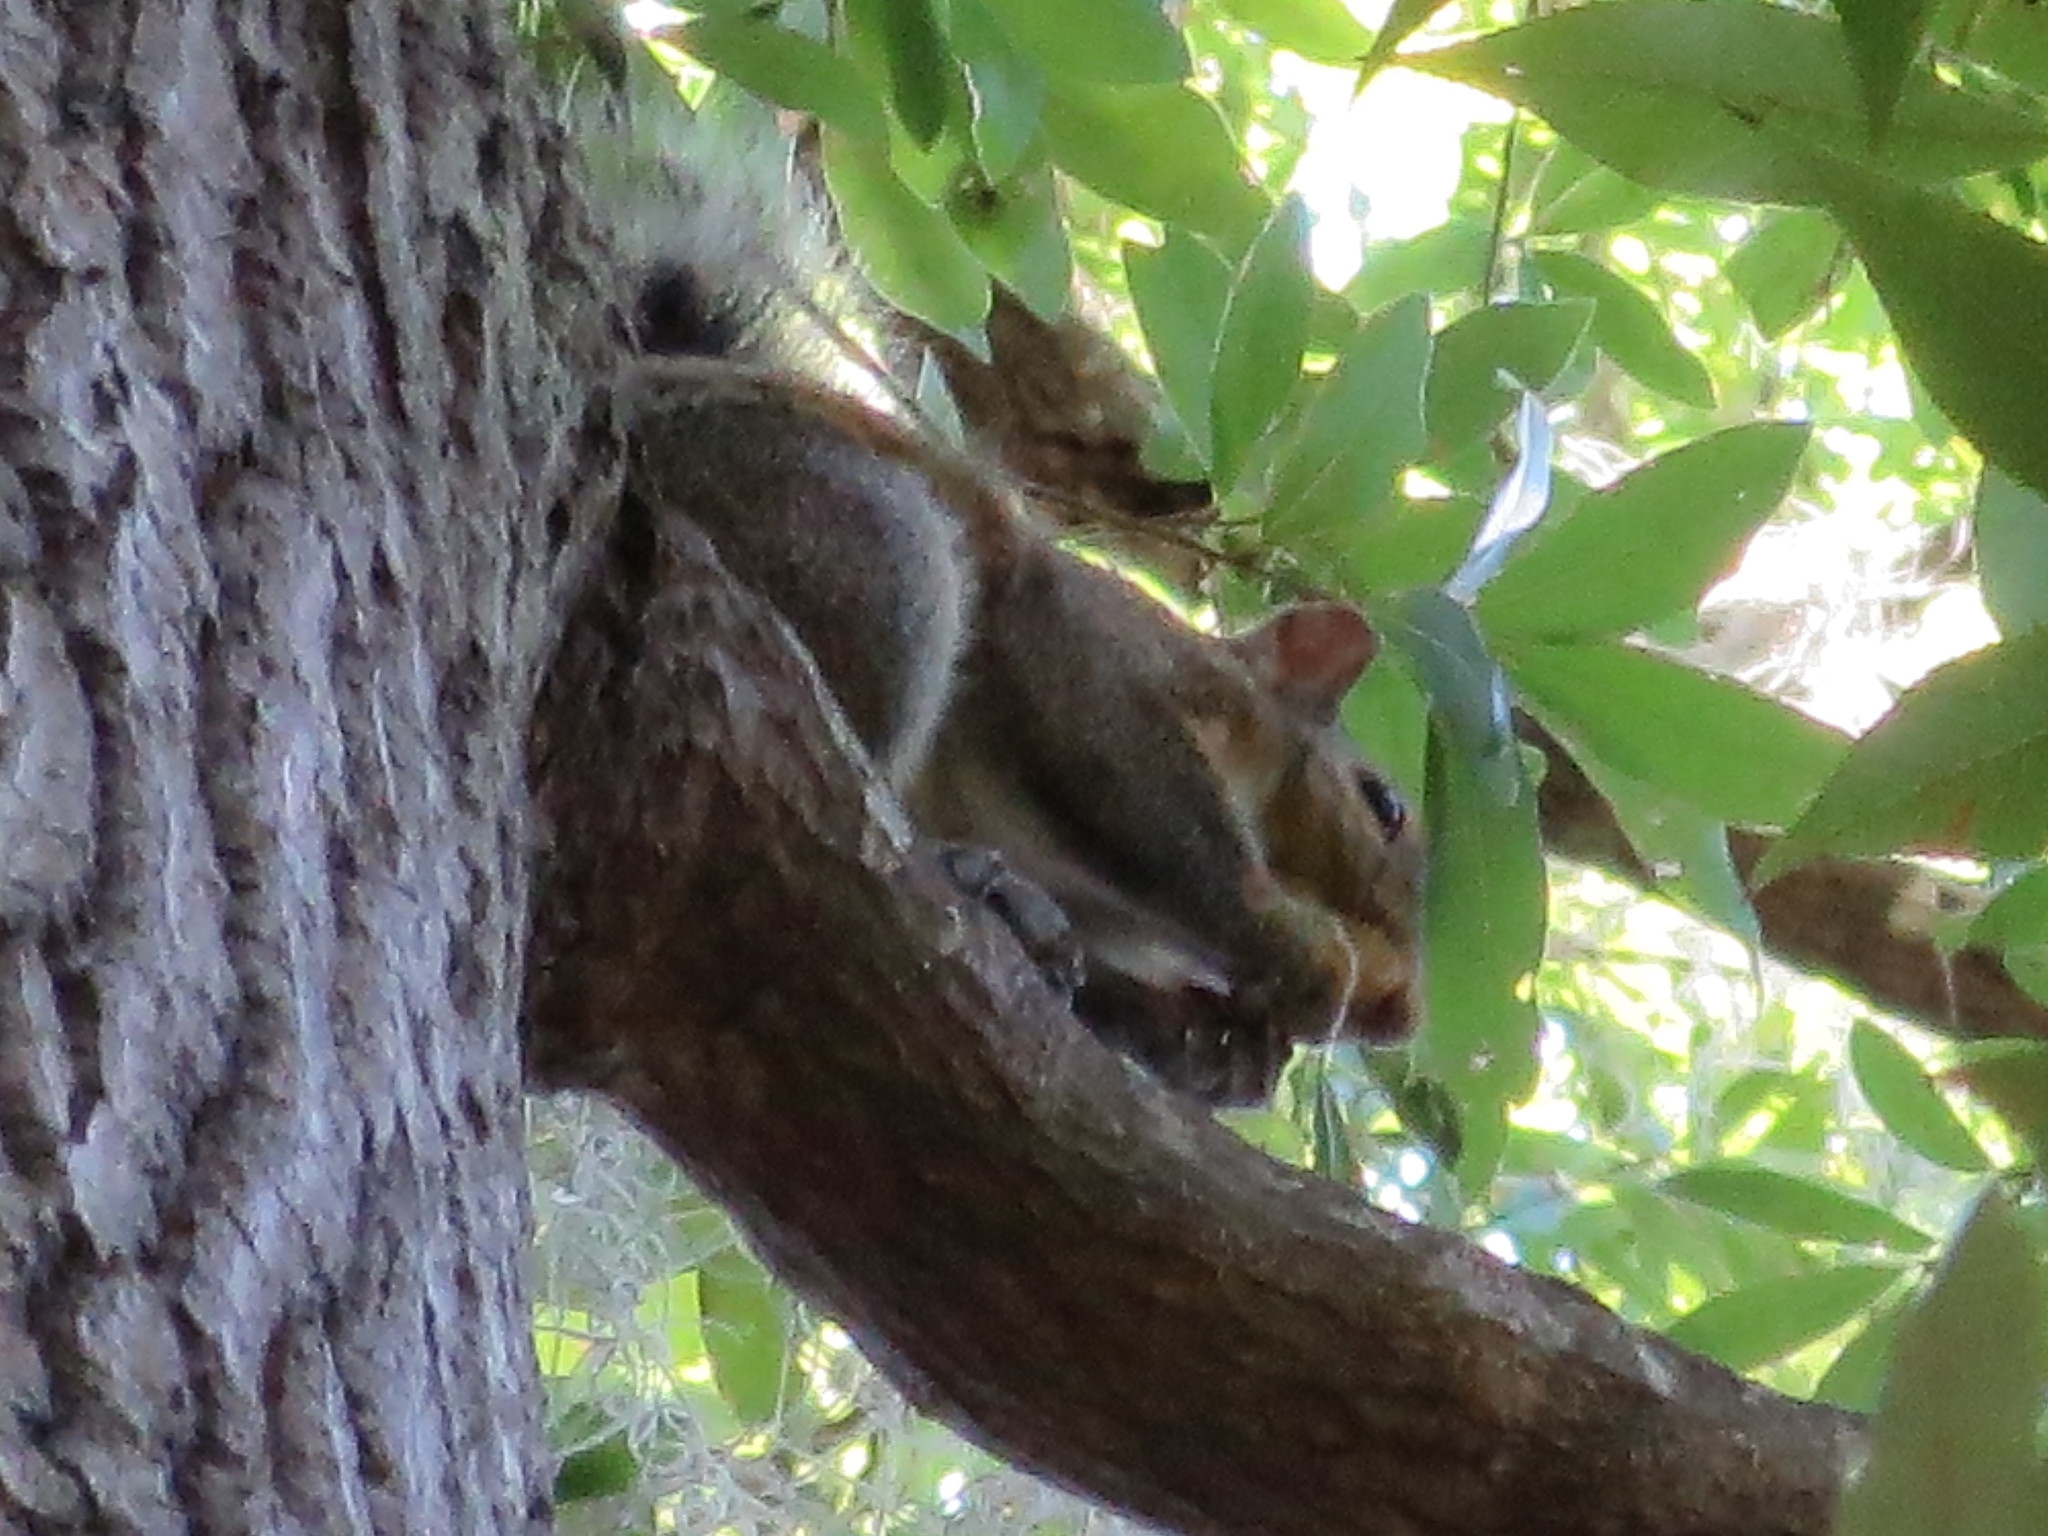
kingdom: Animalia
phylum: Chordata
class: Mammalia
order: Rodentia
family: Sciuridae
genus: Sciurus
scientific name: Sciurus carolinensis
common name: Eastern gray squirrel
